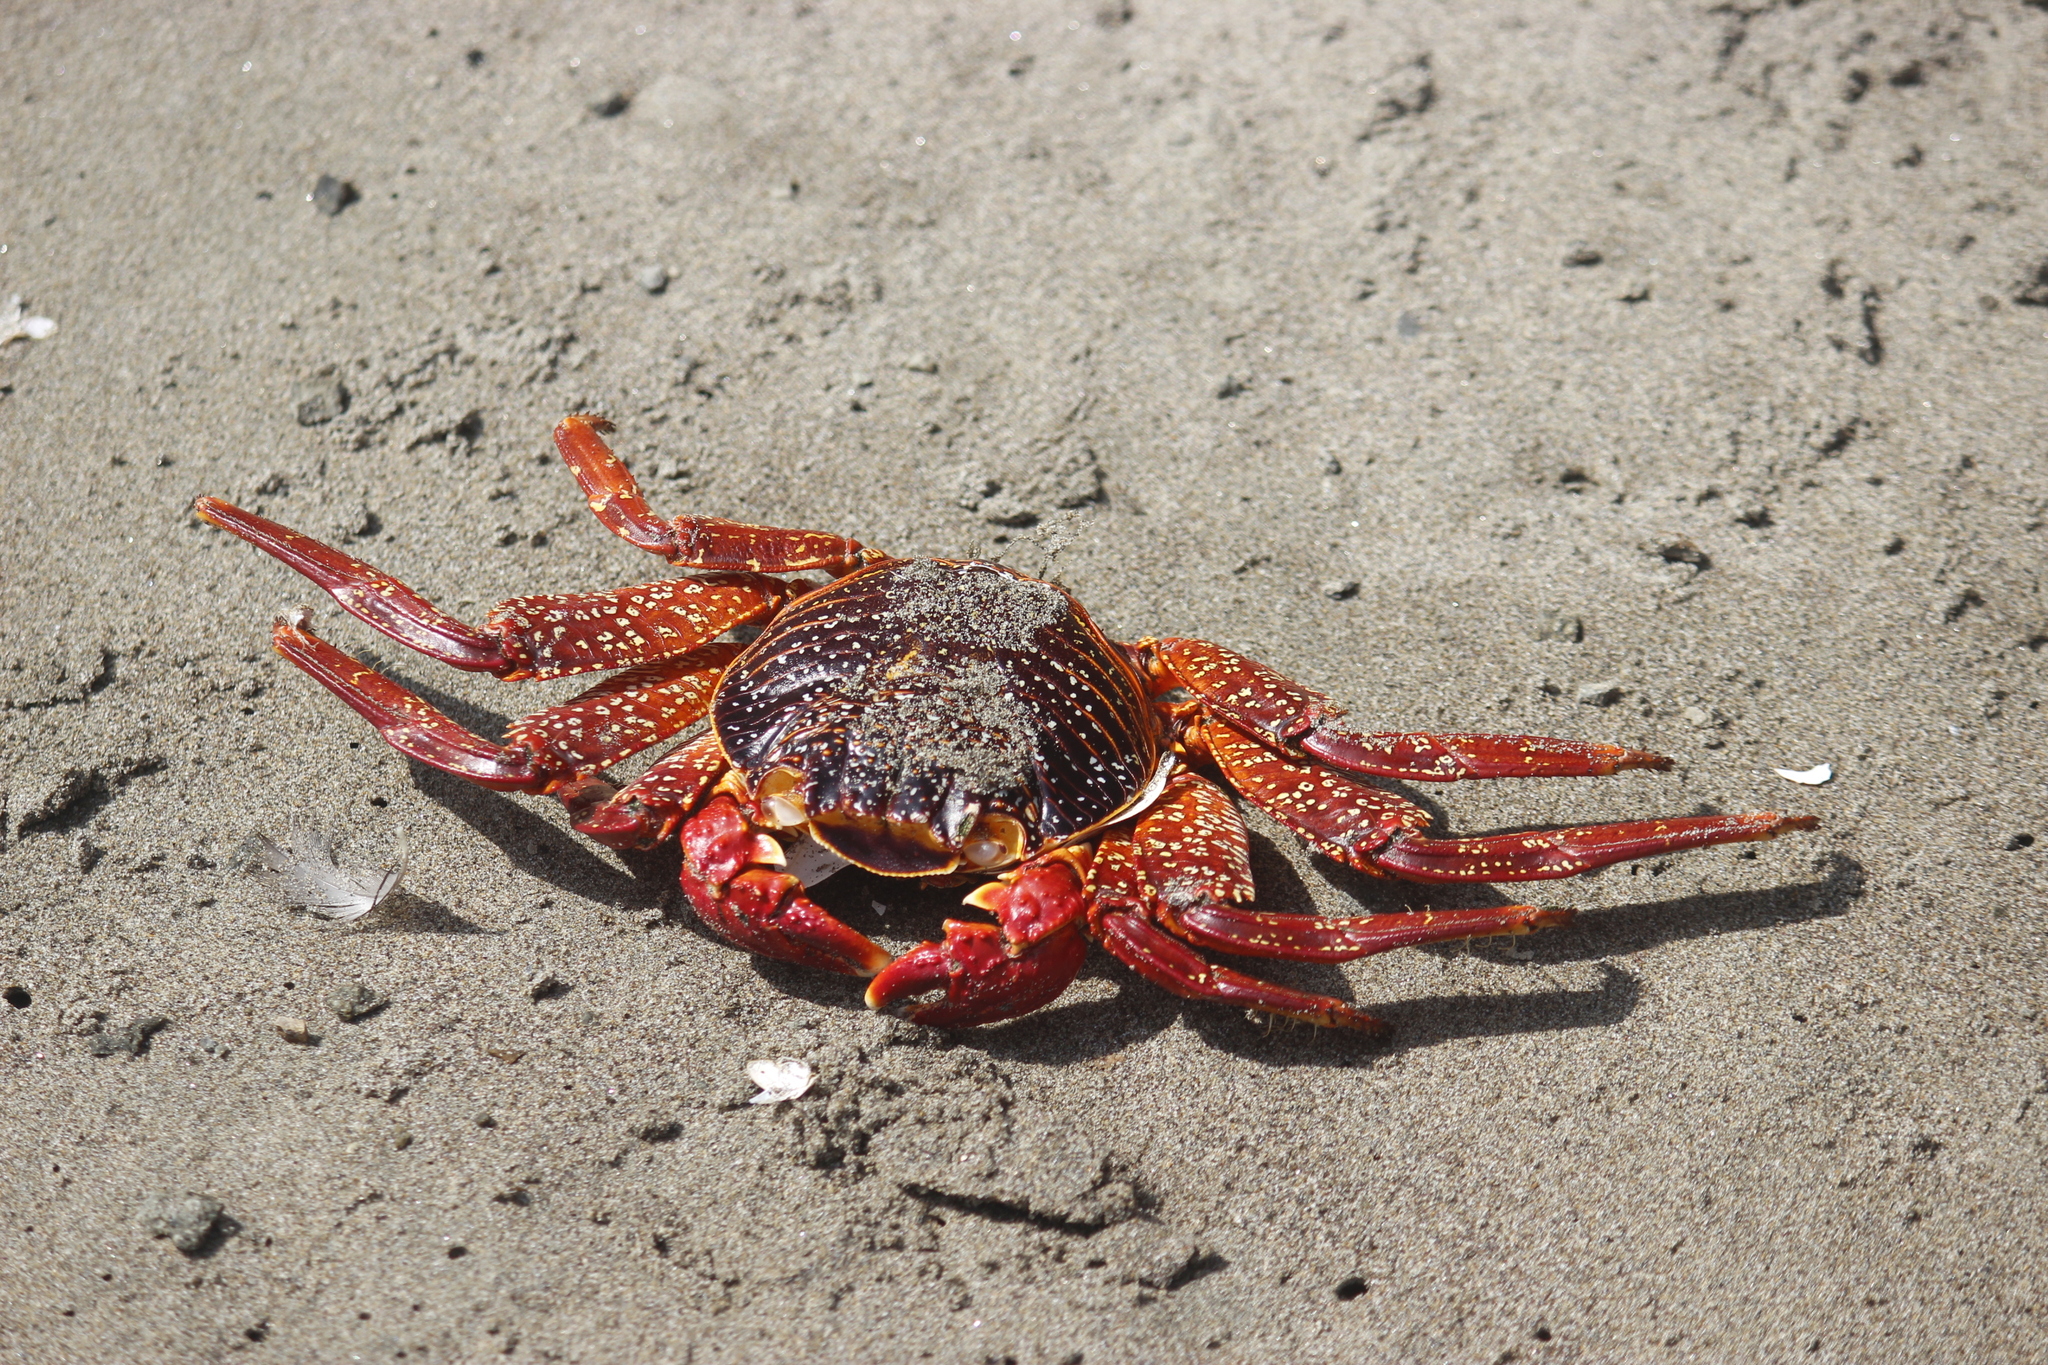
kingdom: Animalia
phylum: Arthropoda
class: Malacostraca
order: Decapoda
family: Grapsidae
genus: Grapsus
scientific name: Grapsus grapsus
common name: Sally lightfoot
